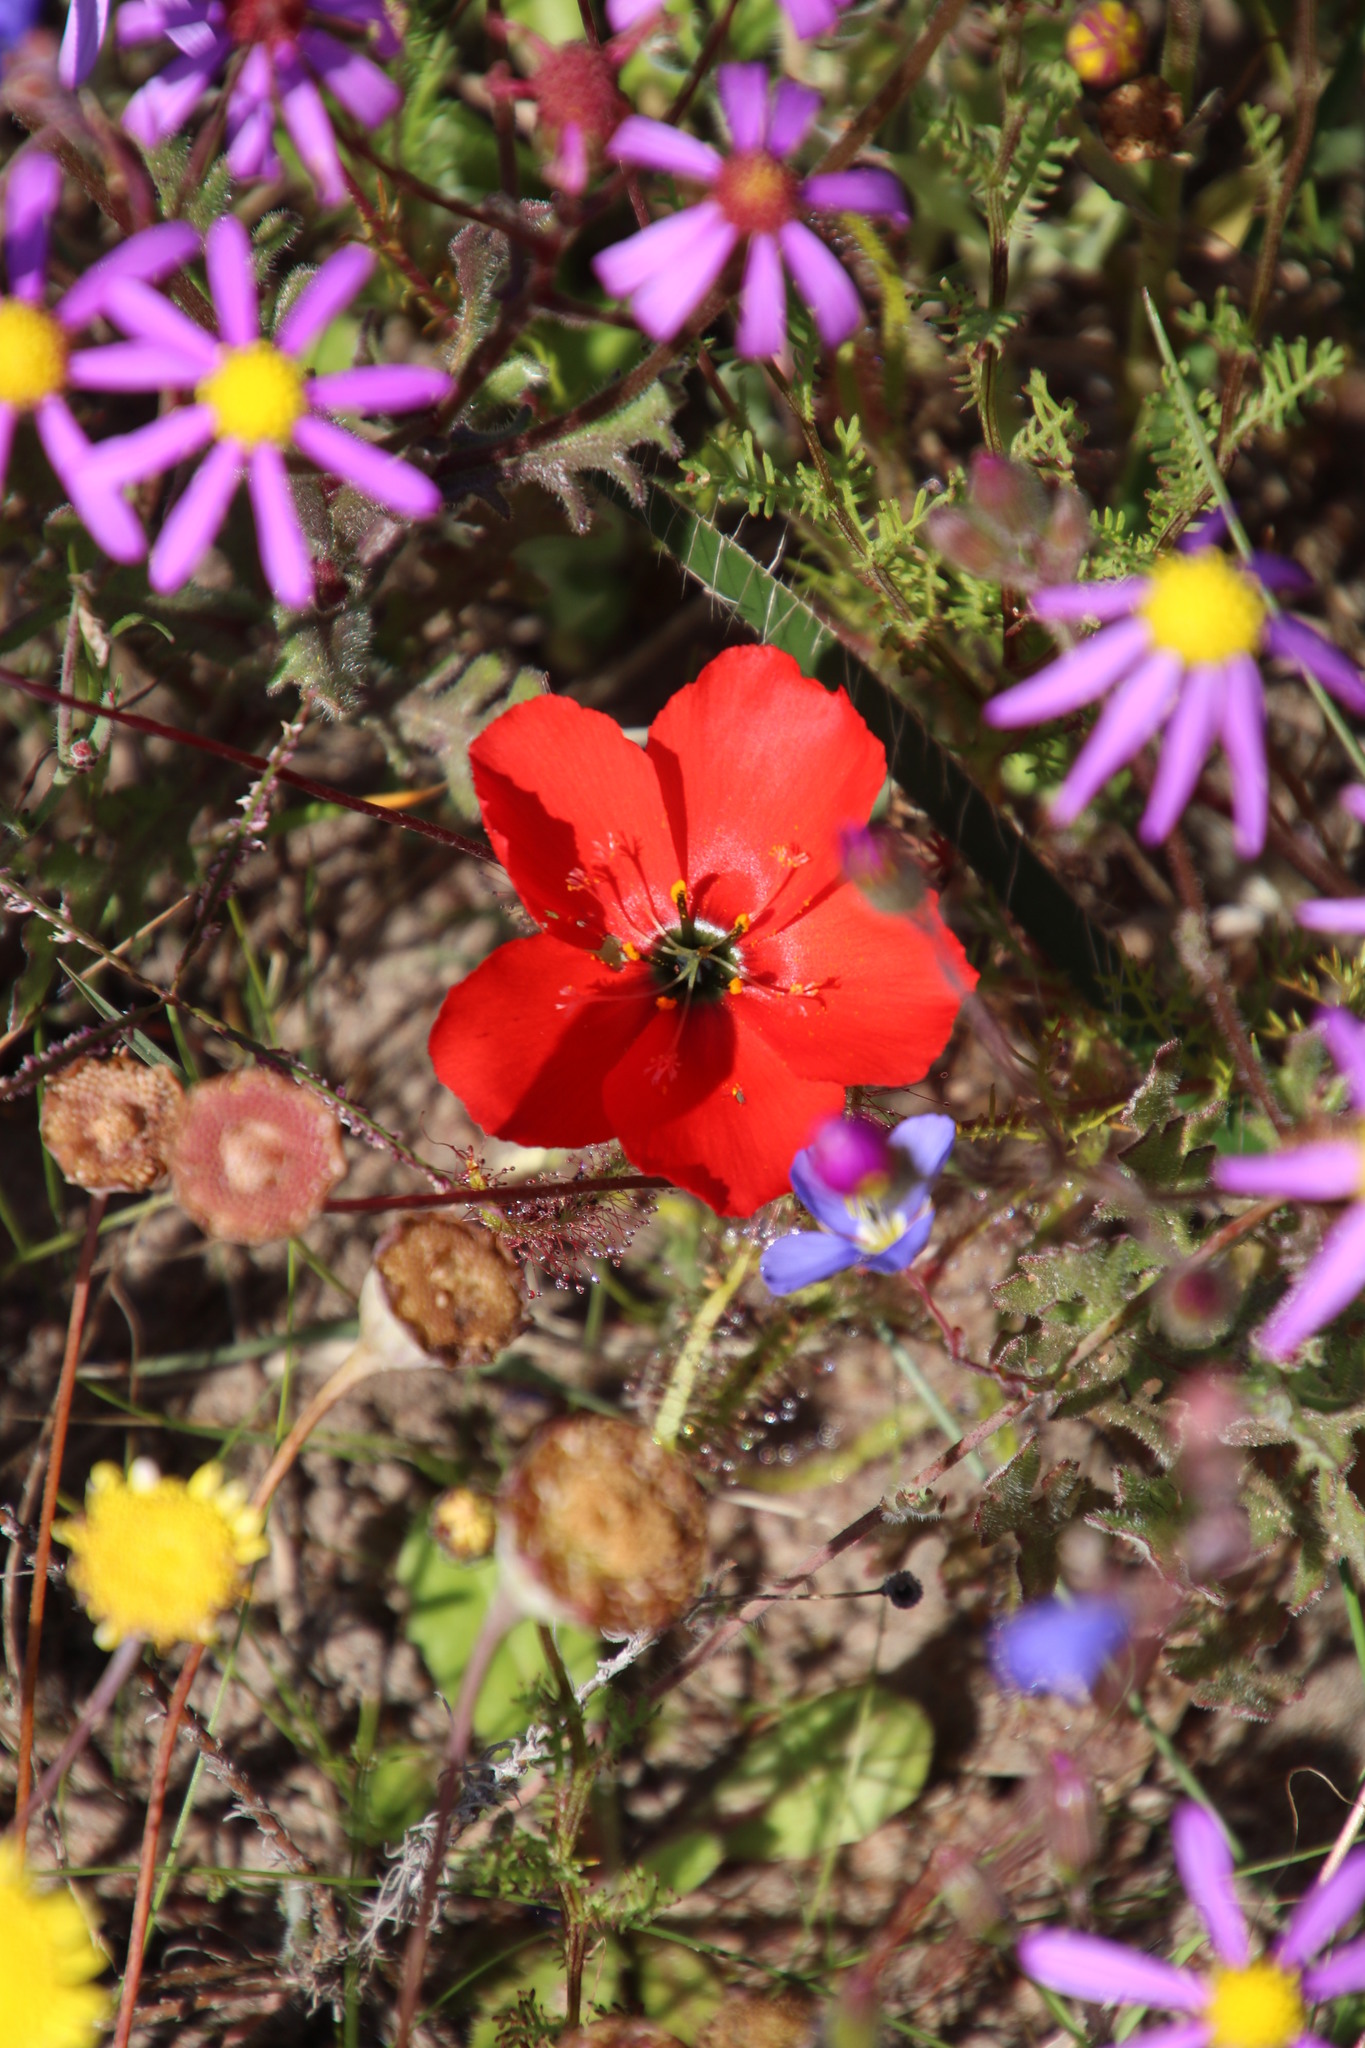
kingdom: Plantae
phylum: Tracheophyta
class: Magnoliopsida
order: Caryophyllales
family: Droseraceae
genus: Drosera
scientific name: Drosera cistiflora
